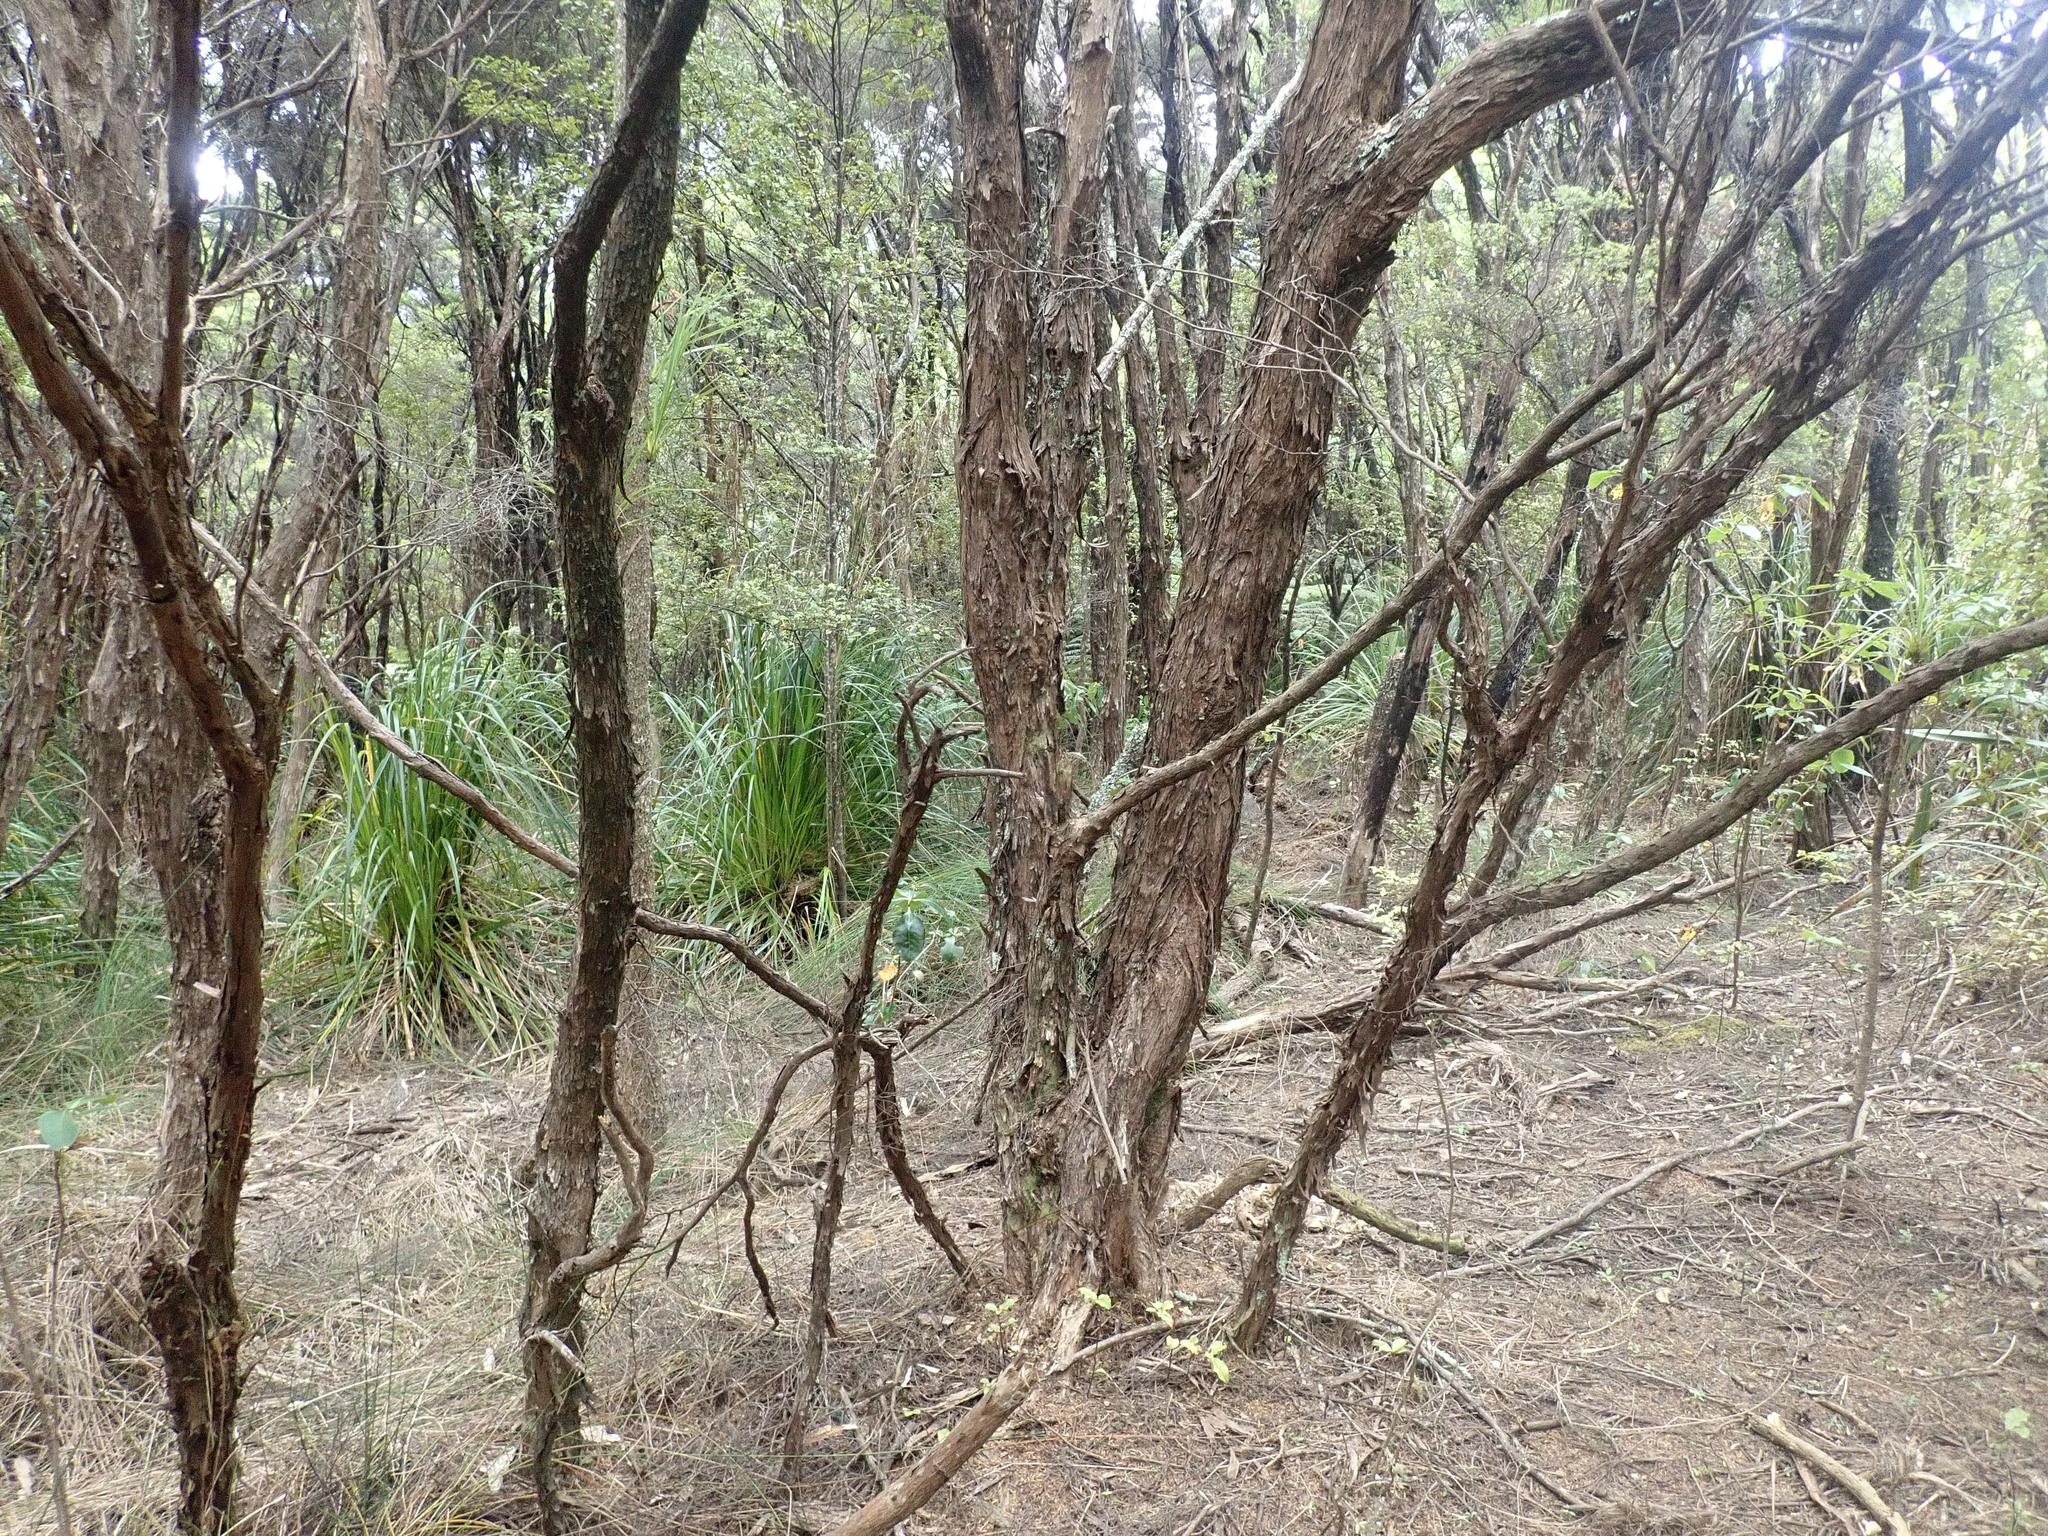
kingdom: Plantae
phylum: Tracheophyta
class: Magnoliopsida
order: Ericales
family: Primulaceae
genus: Myrsine
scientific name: Myrsine australis
